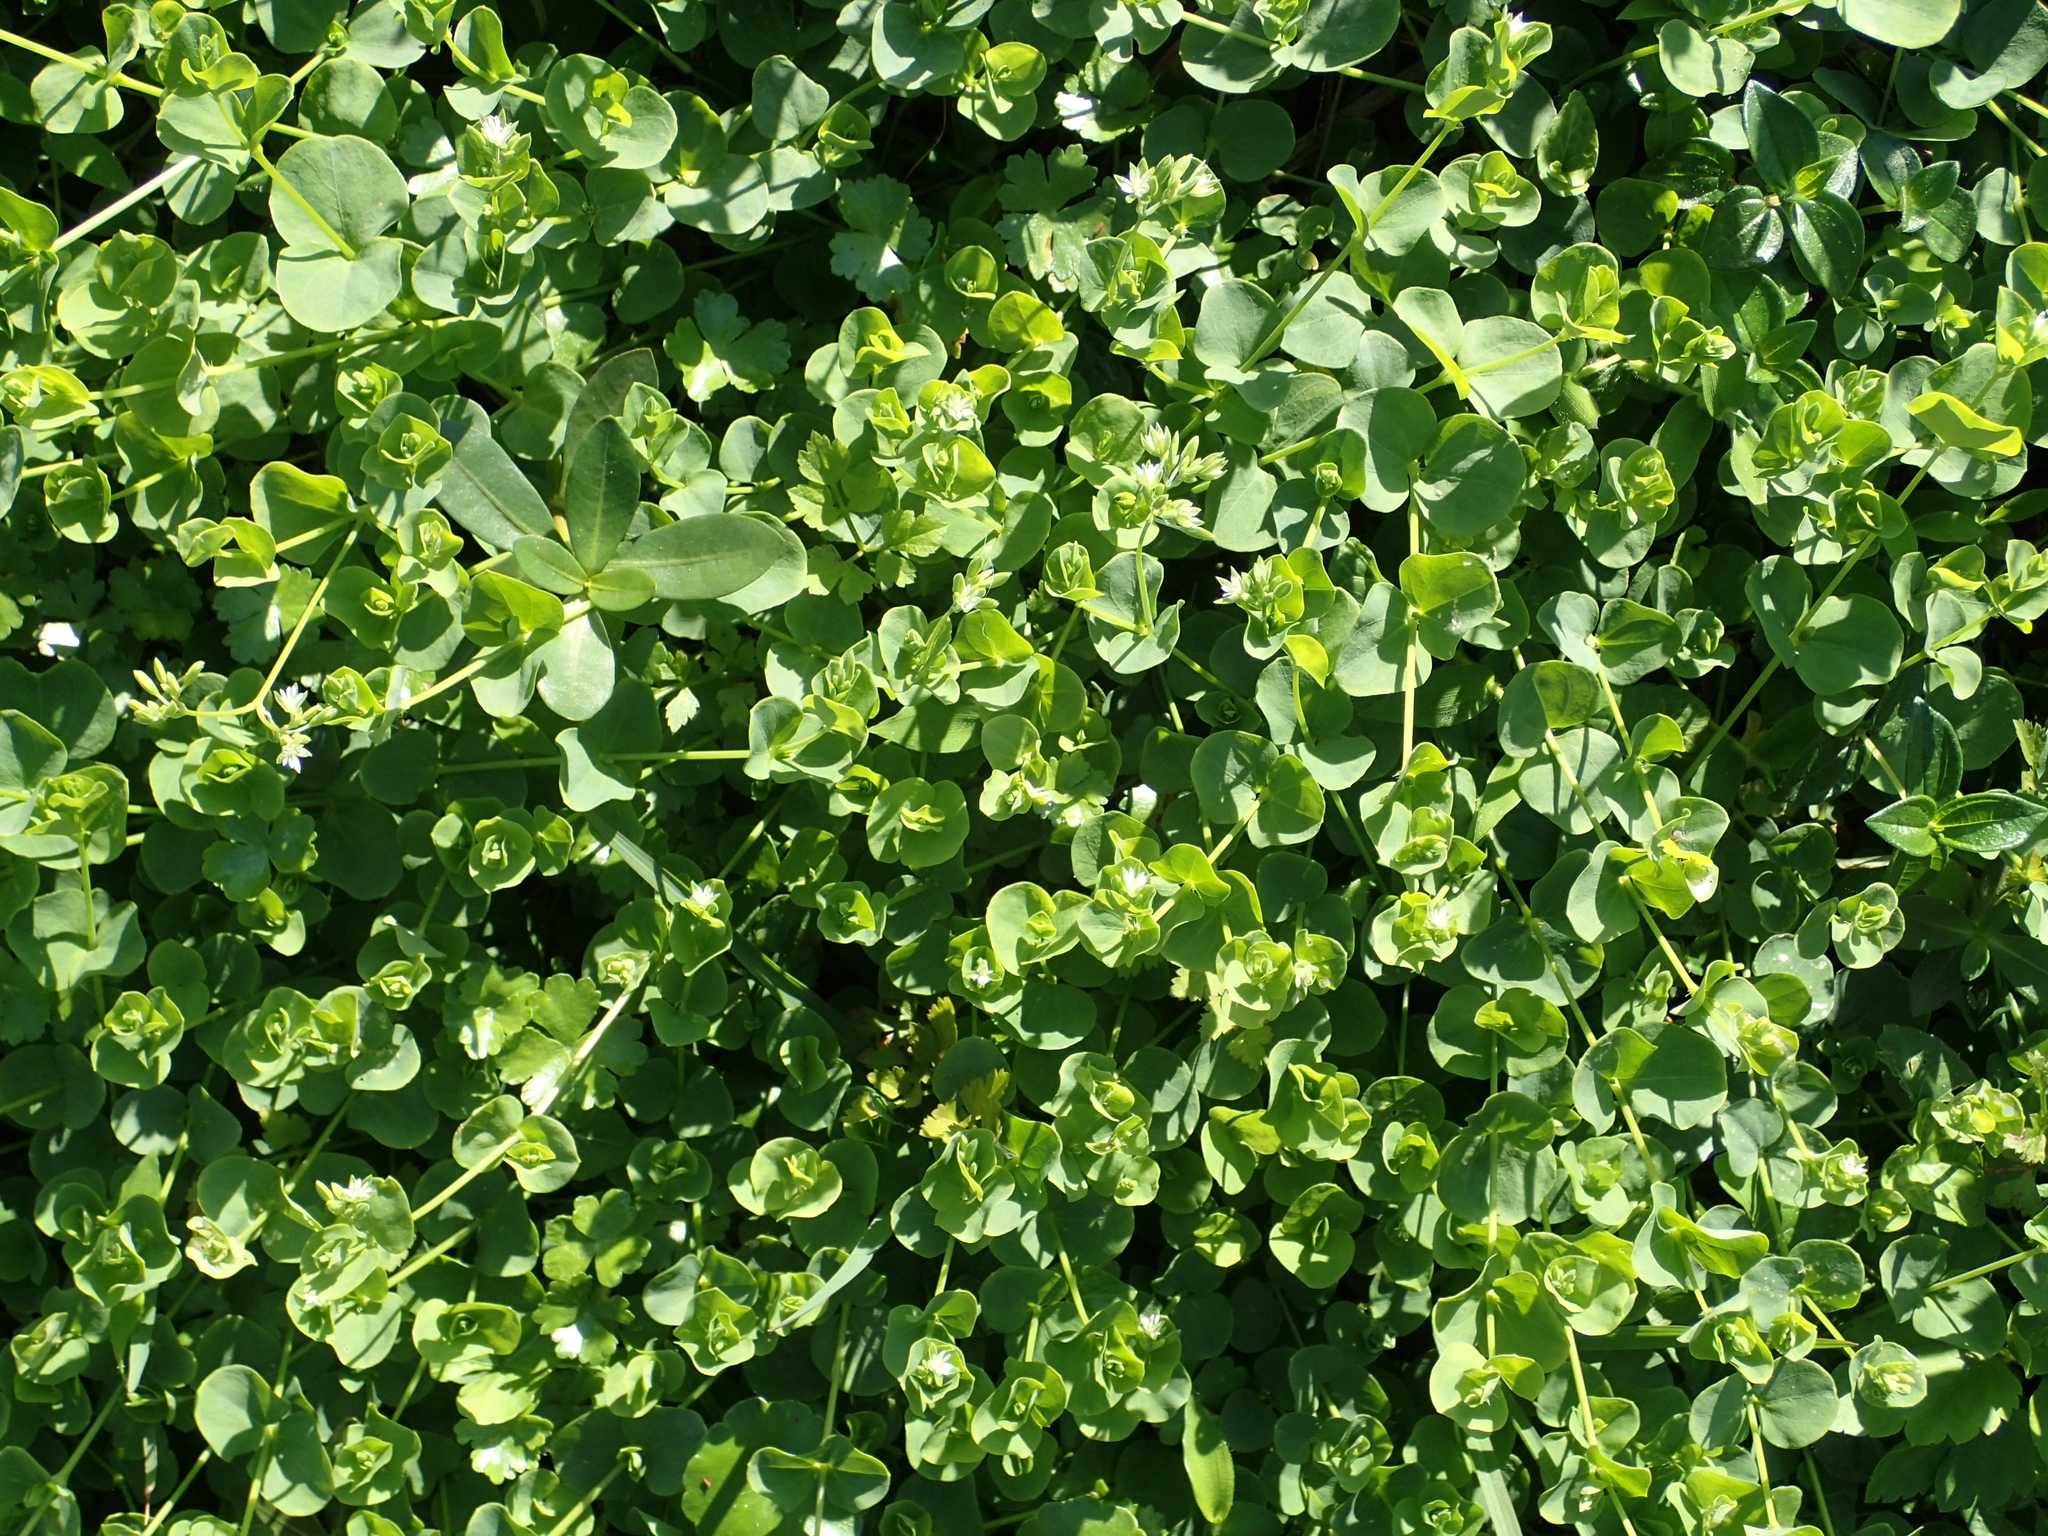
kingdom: Plantae
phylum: Tracheophyta
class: Magnoliopsida
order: Caryophyllales
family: Caryophyllaceae
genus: Drymaria
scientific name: Drymaria cordata
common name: Whitesnow
